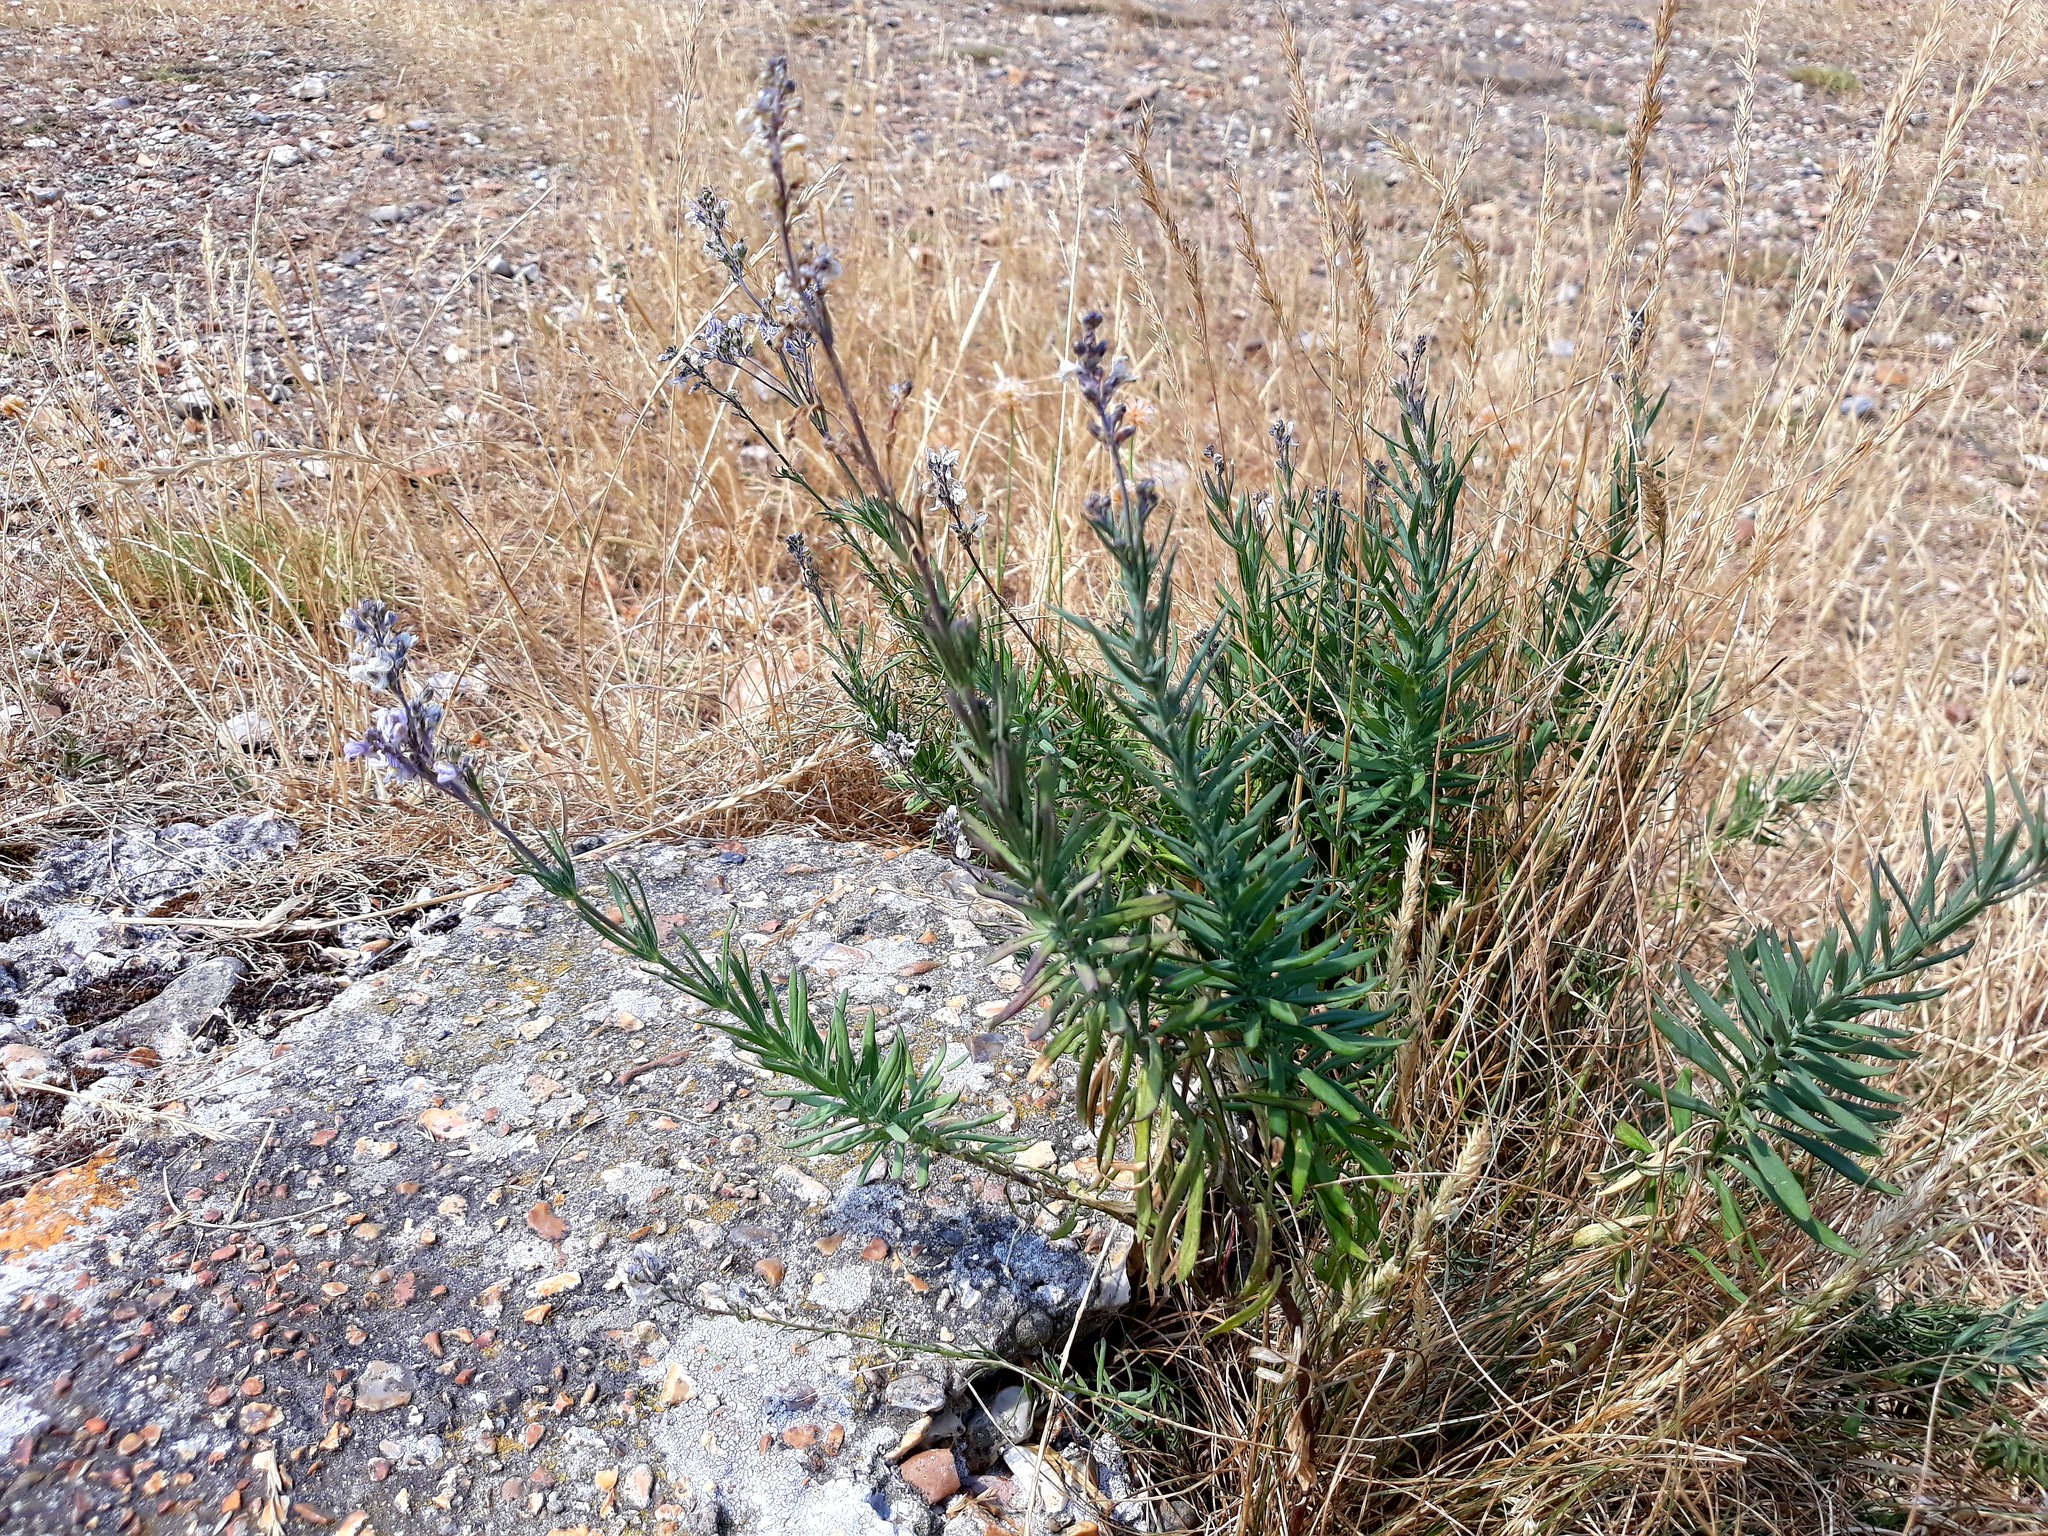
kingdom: Plantae
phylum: Tracheophyta
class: Magnoliopsida
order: Lamiales
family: Plantaginaceae
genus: Linaria
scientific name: Linaria repens
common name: Pale toadflax
